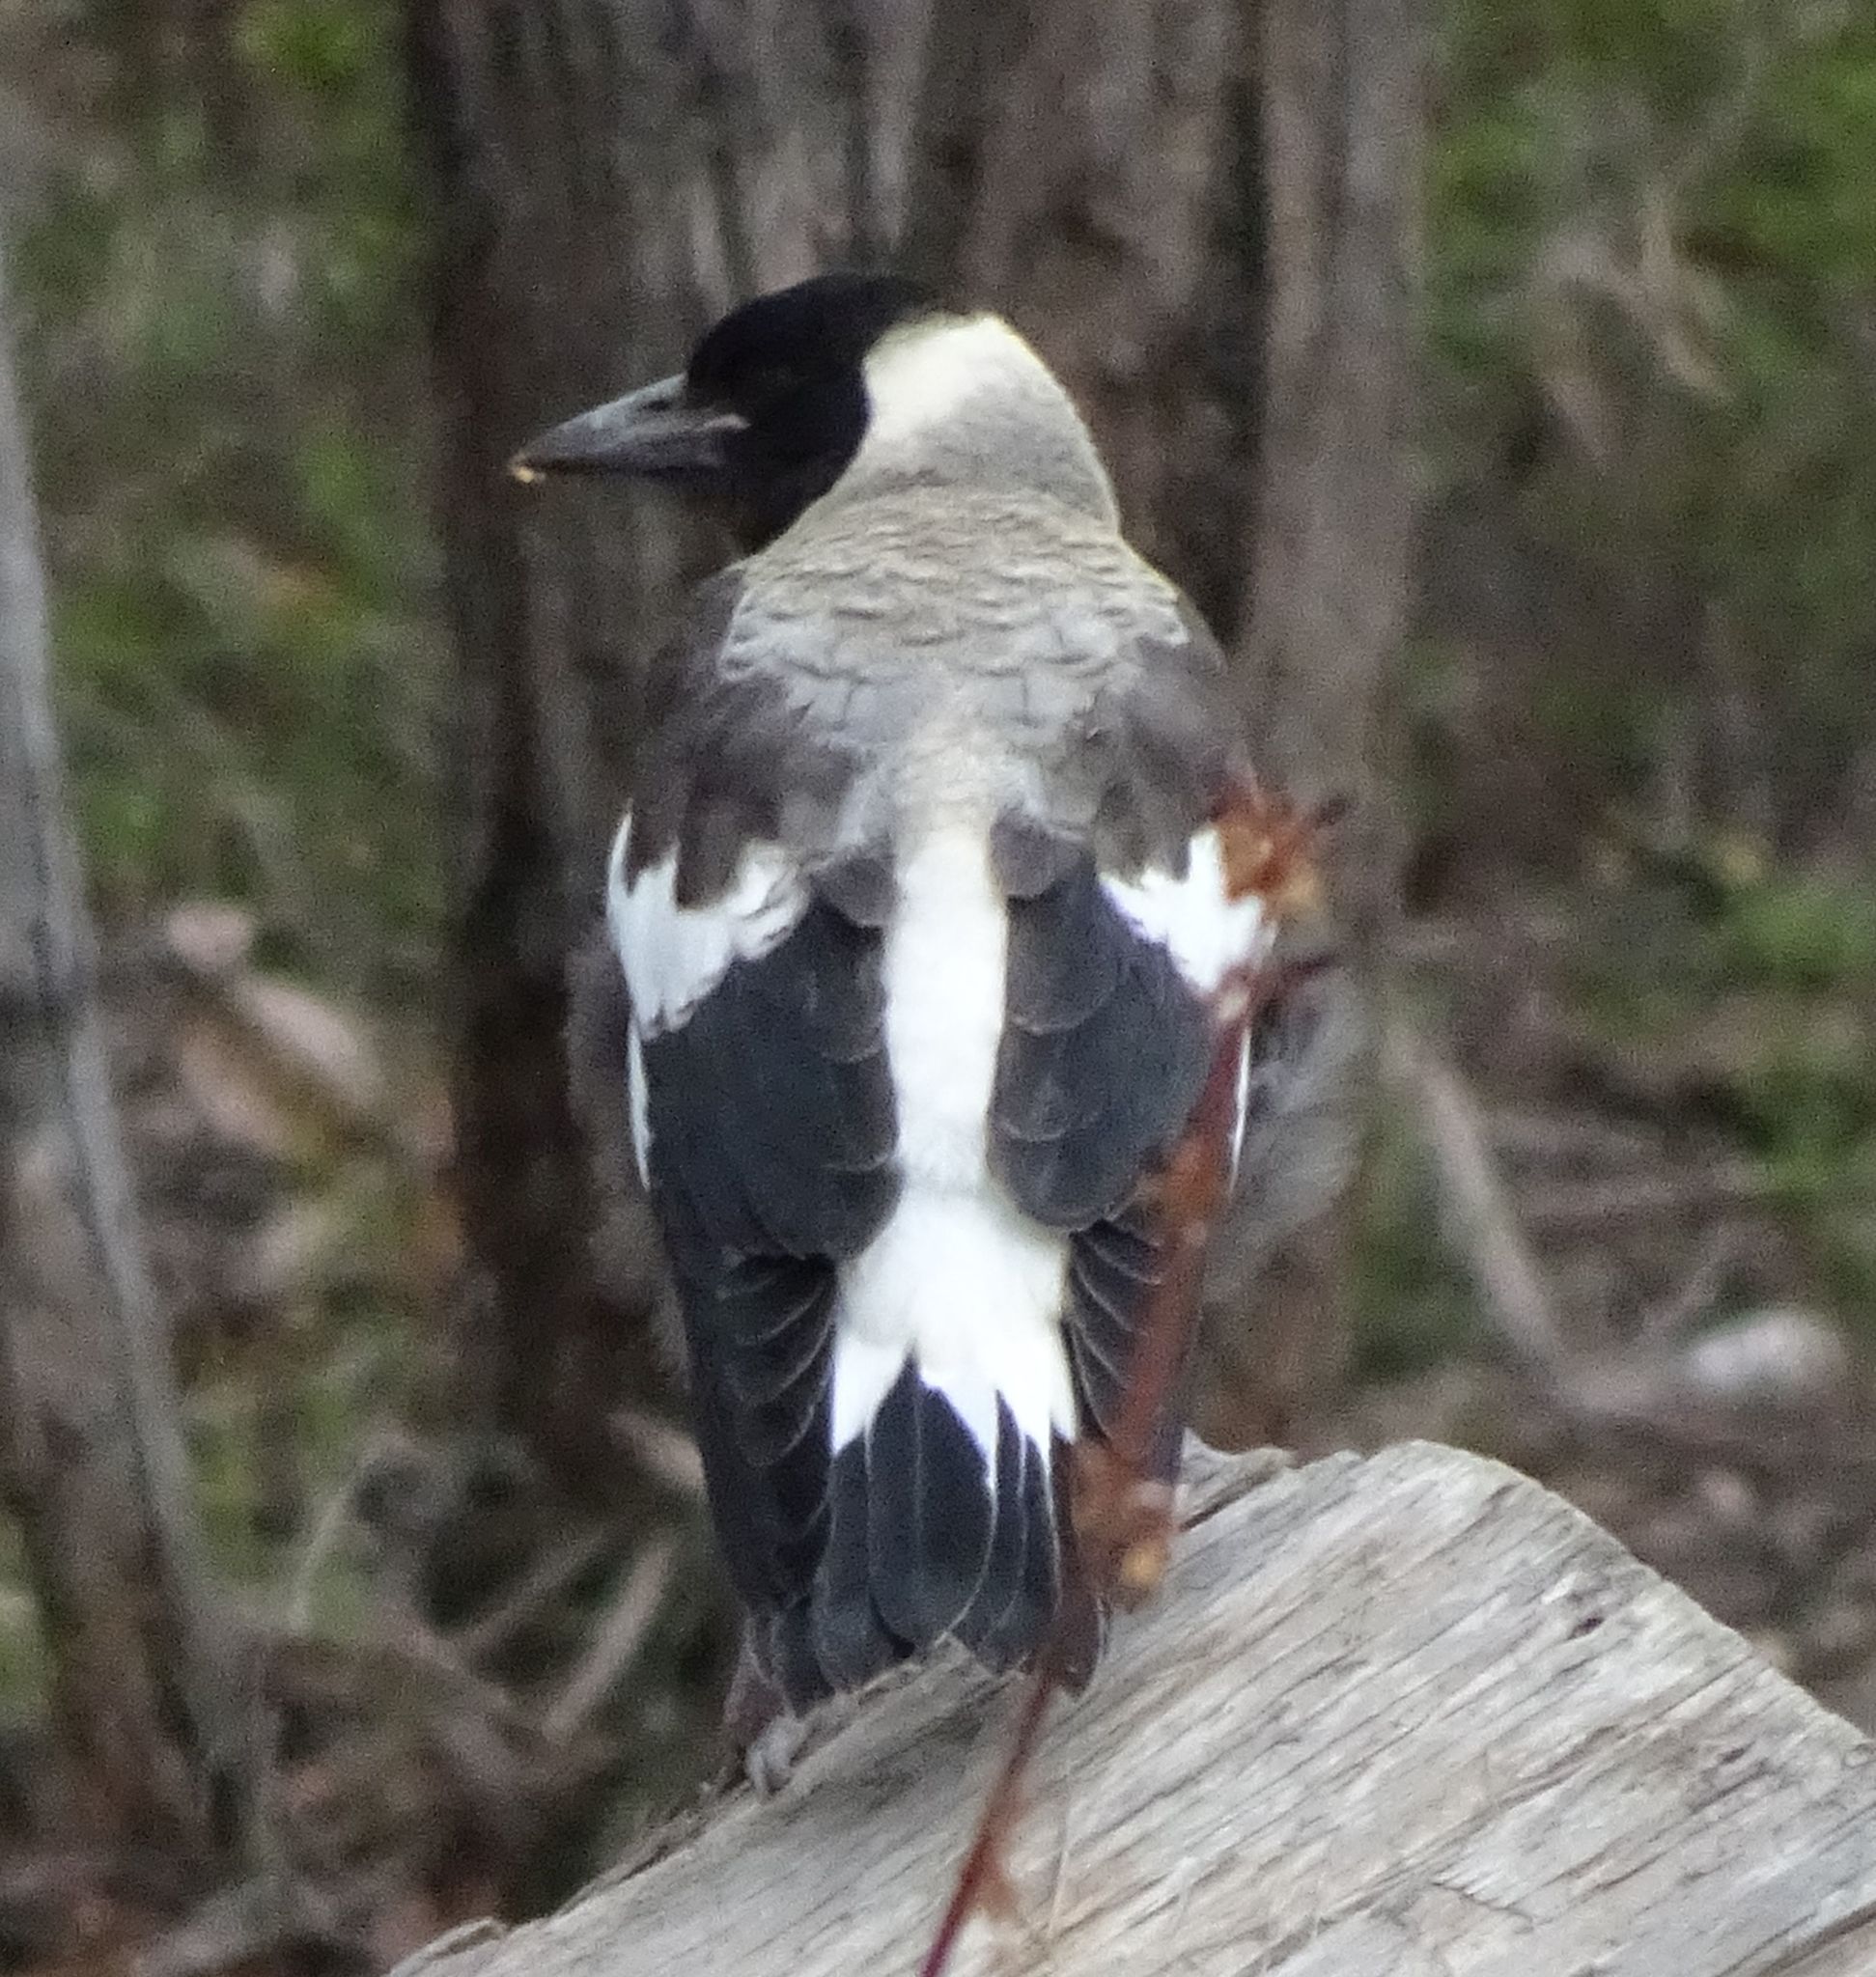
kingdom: Animalia
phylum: Chordata
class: Aves
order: Passeriformes
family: Cracticidae
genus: Gymnorhina
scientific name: Gymnorhina tibicen
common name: Australian magpie
